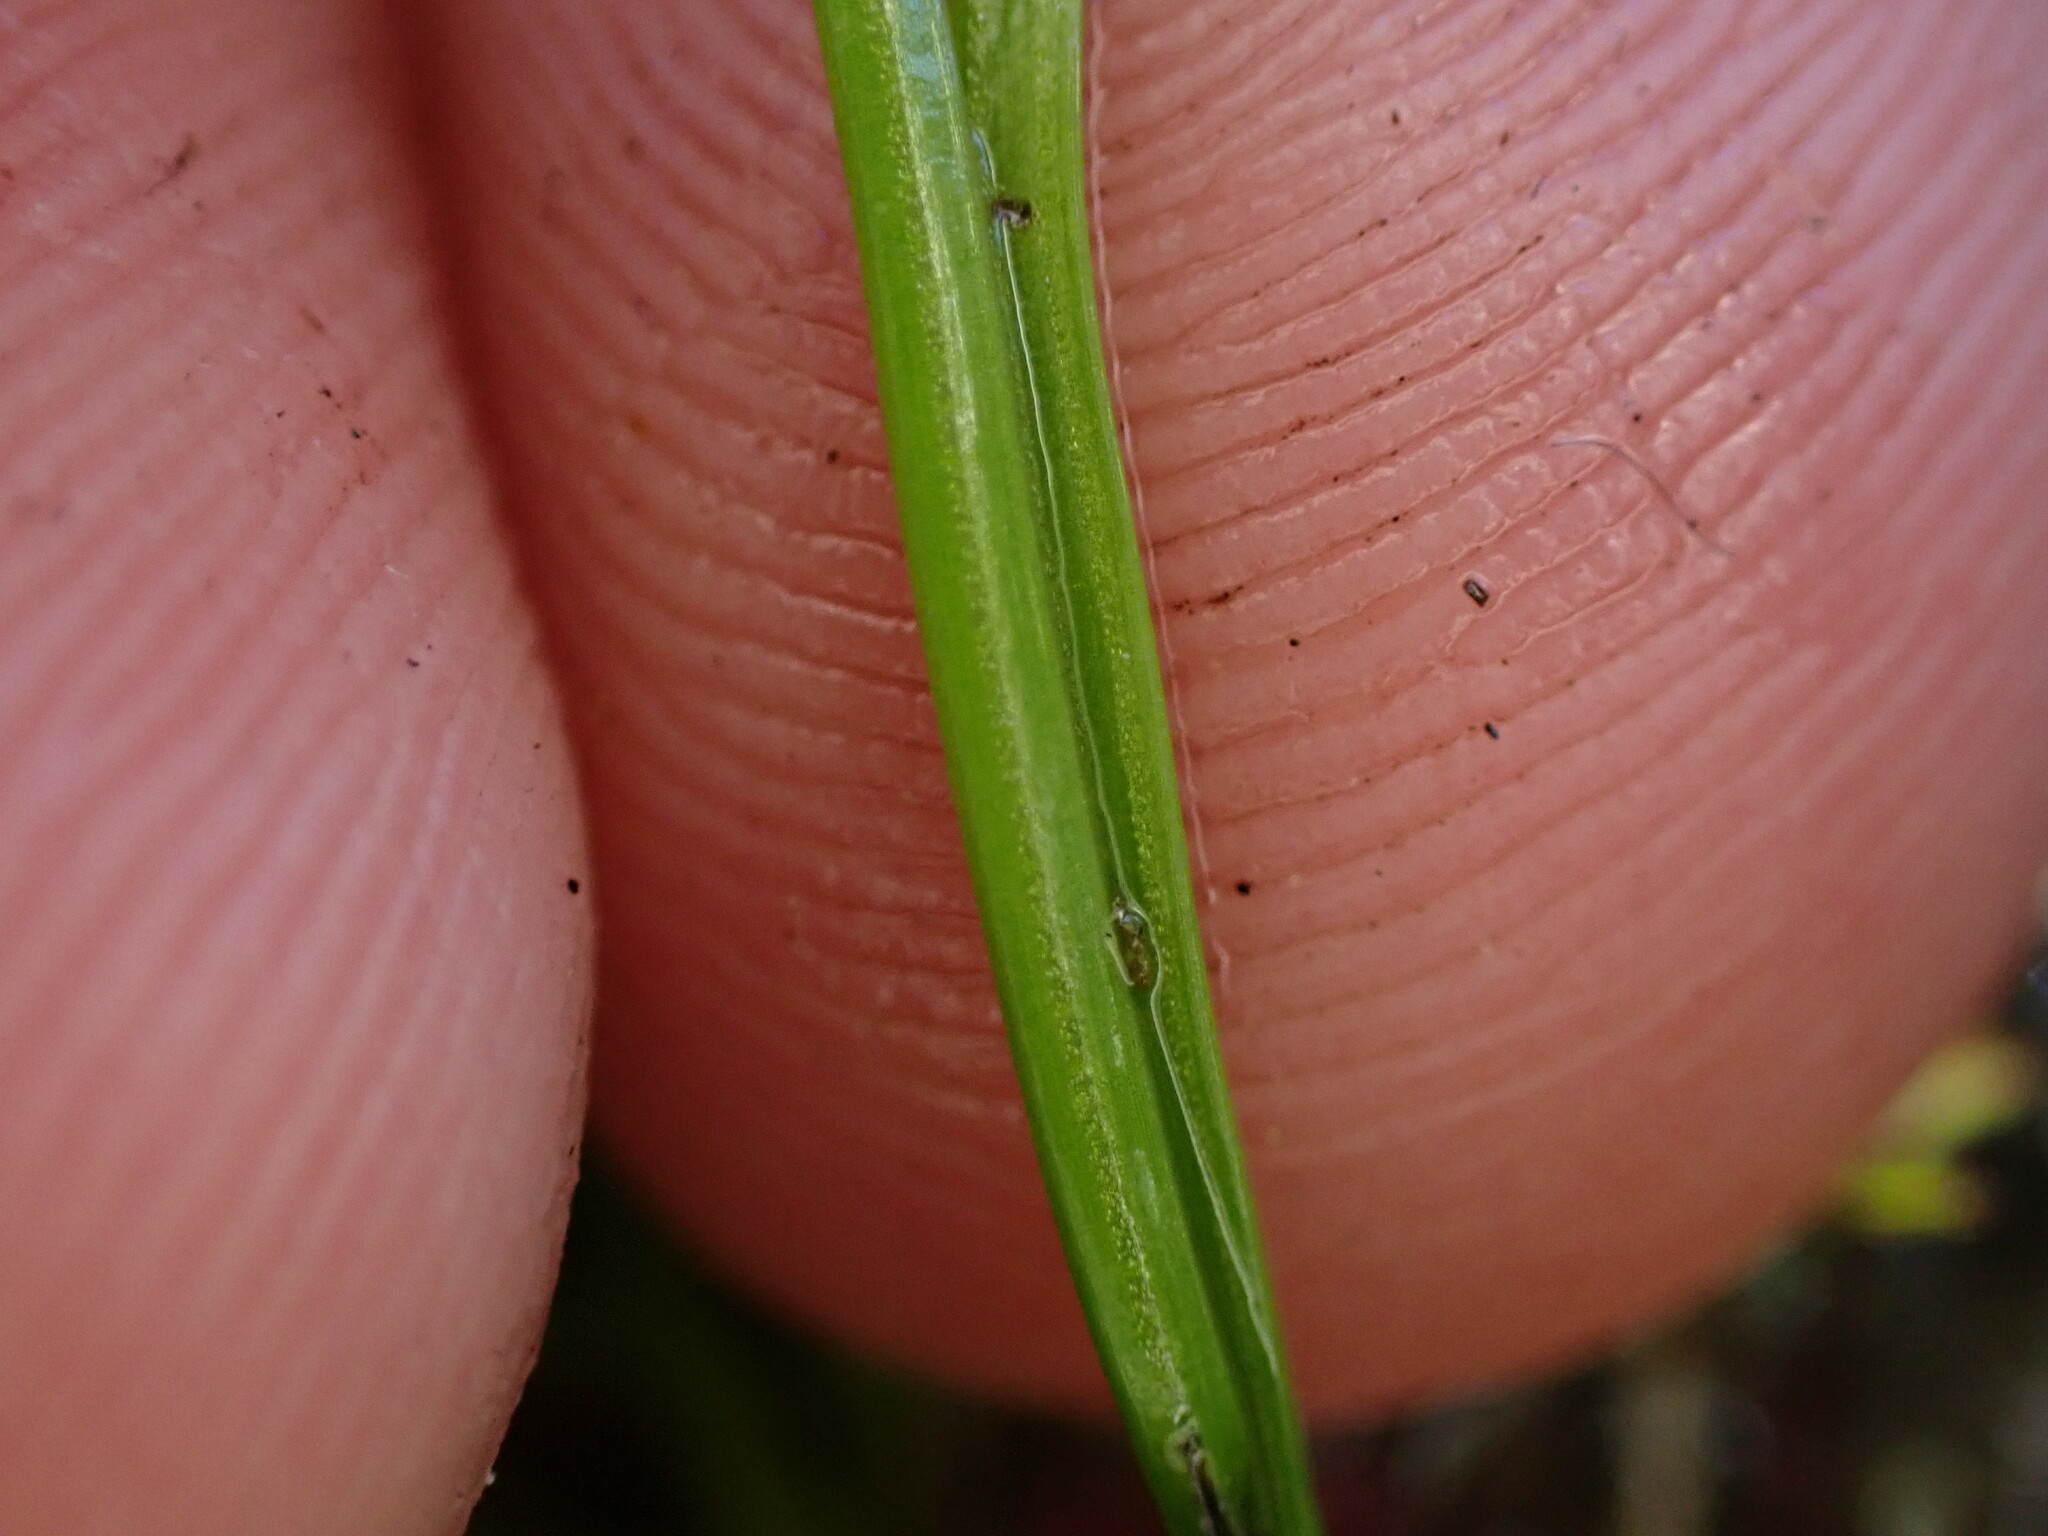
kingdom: Plantae
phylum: Tracheophyta
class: Lycopodiopsida
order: Isoetales
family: Isoetaceae
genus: Isoetes
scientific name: Isoetes nuttallii
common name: Nuttall's quillwort
